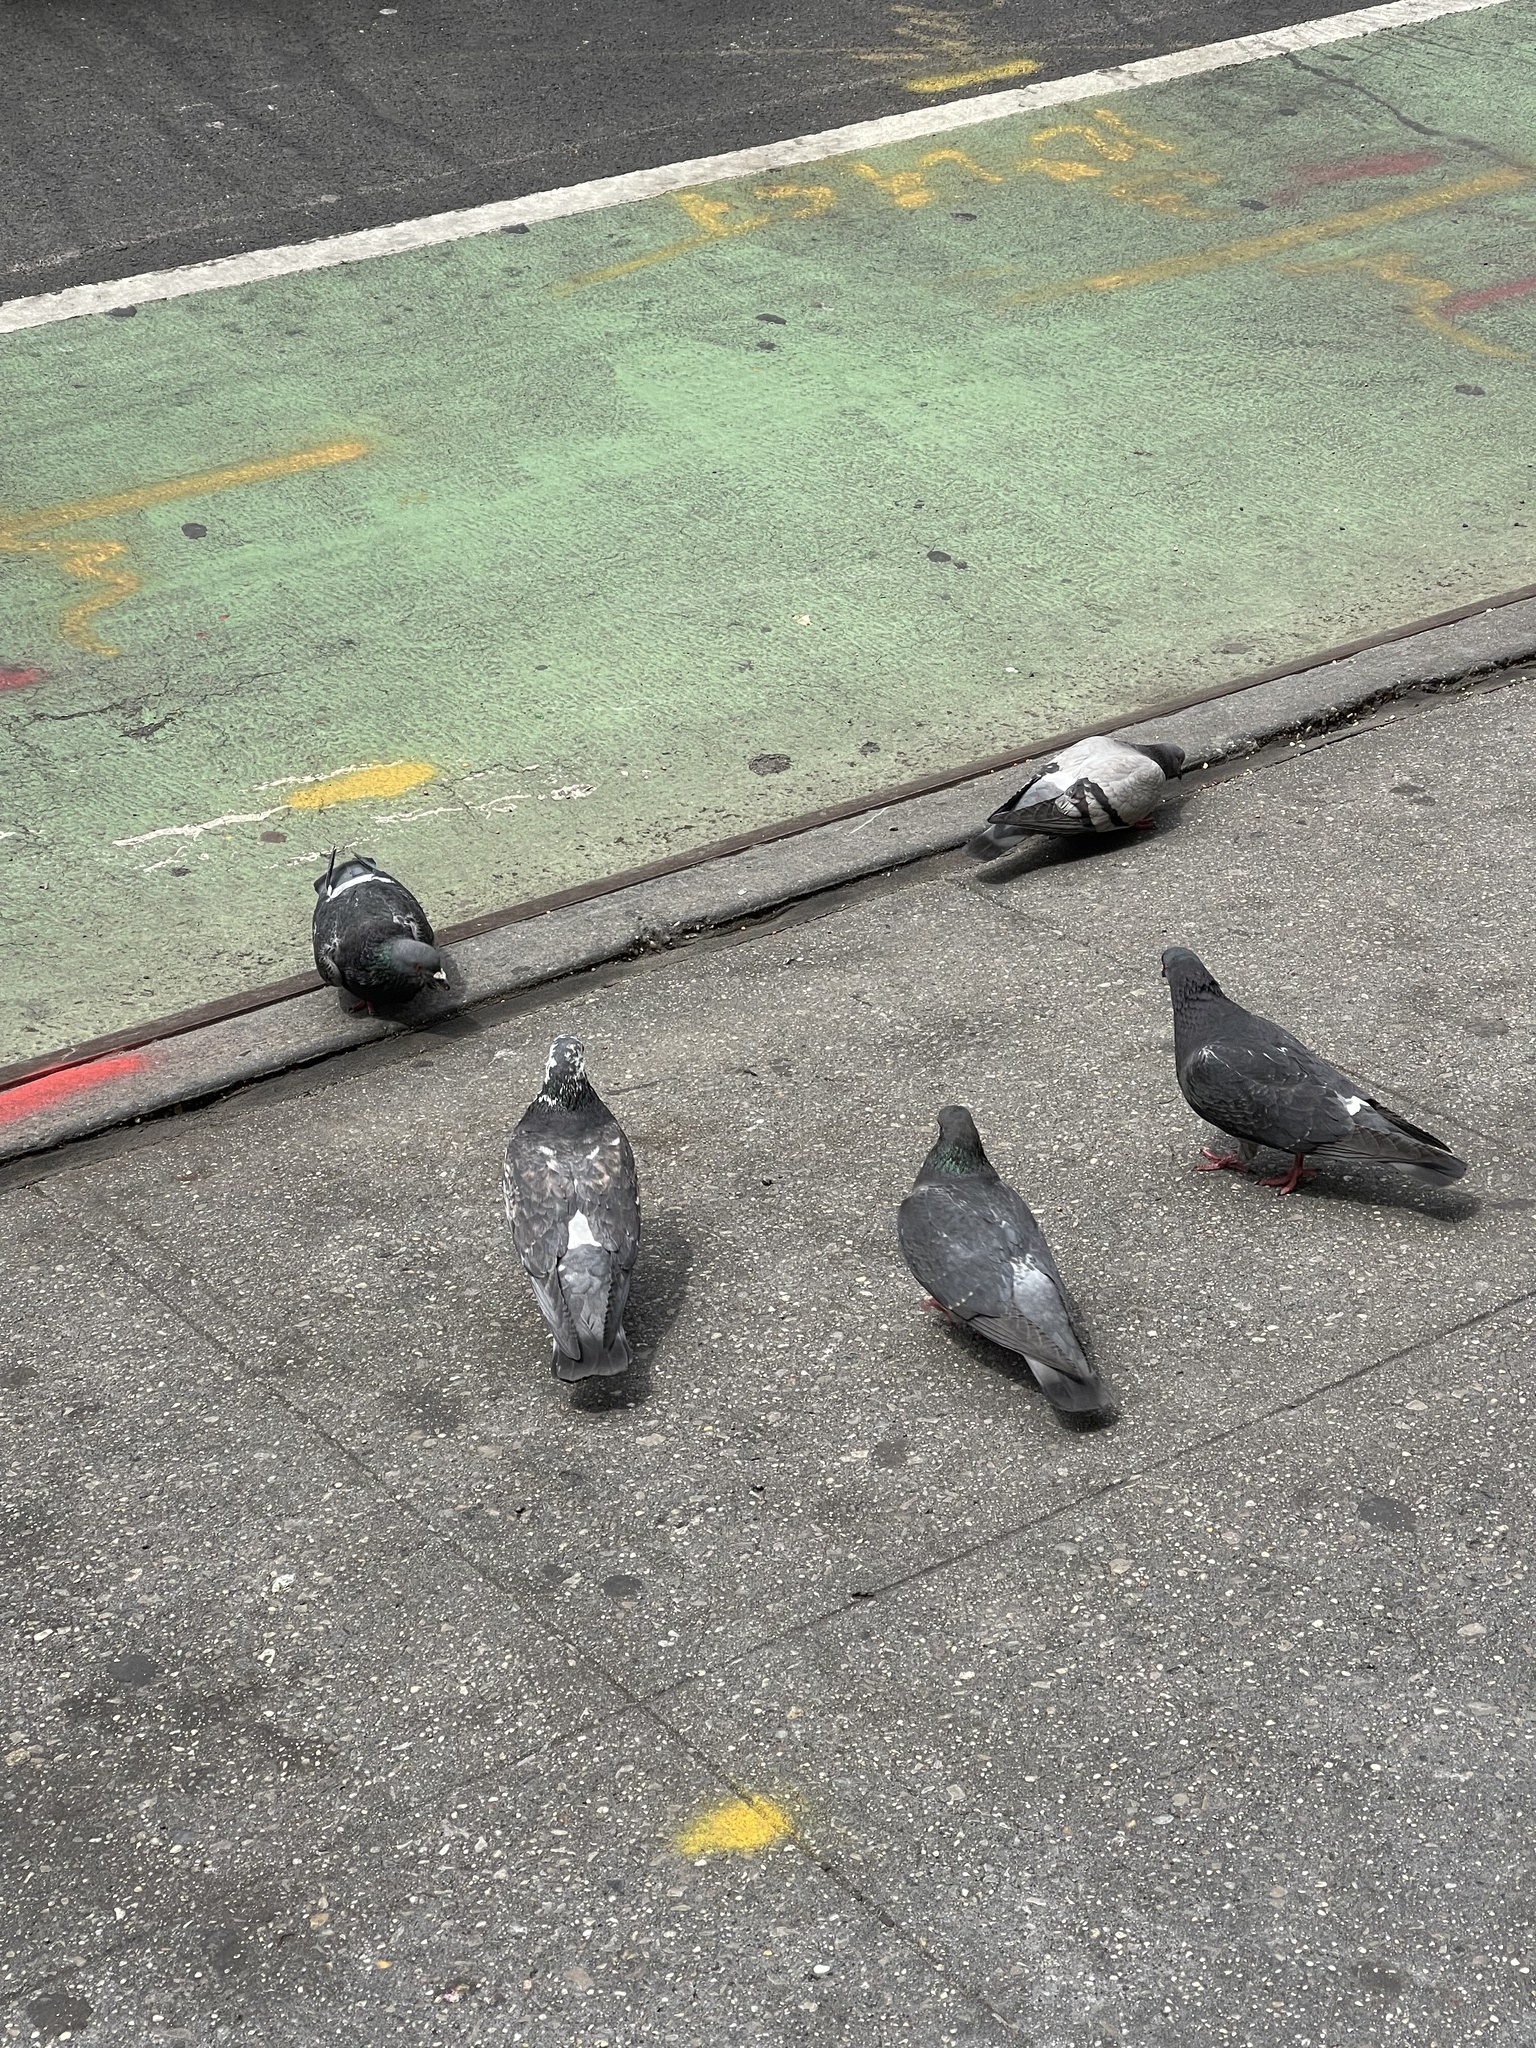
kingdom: Animalia
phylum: Chordata
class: Aves
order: Columbiformes
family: Columbidae
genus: Columba
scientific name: Columba livia
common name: Rock pigeon
